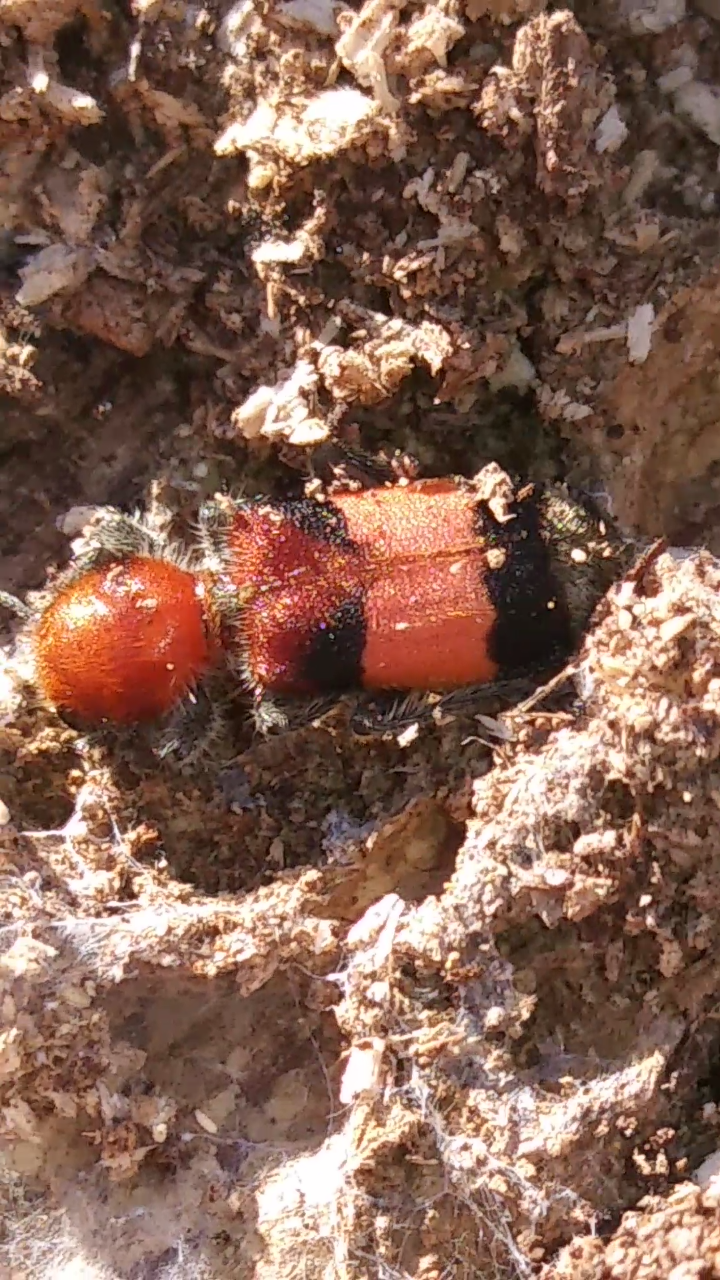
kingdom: Animalia
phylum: Arthropoda
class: Insecta
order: Coleoptera
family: Cleridae
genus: Enoclerus
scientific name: Enoclerus ichneumoneus
